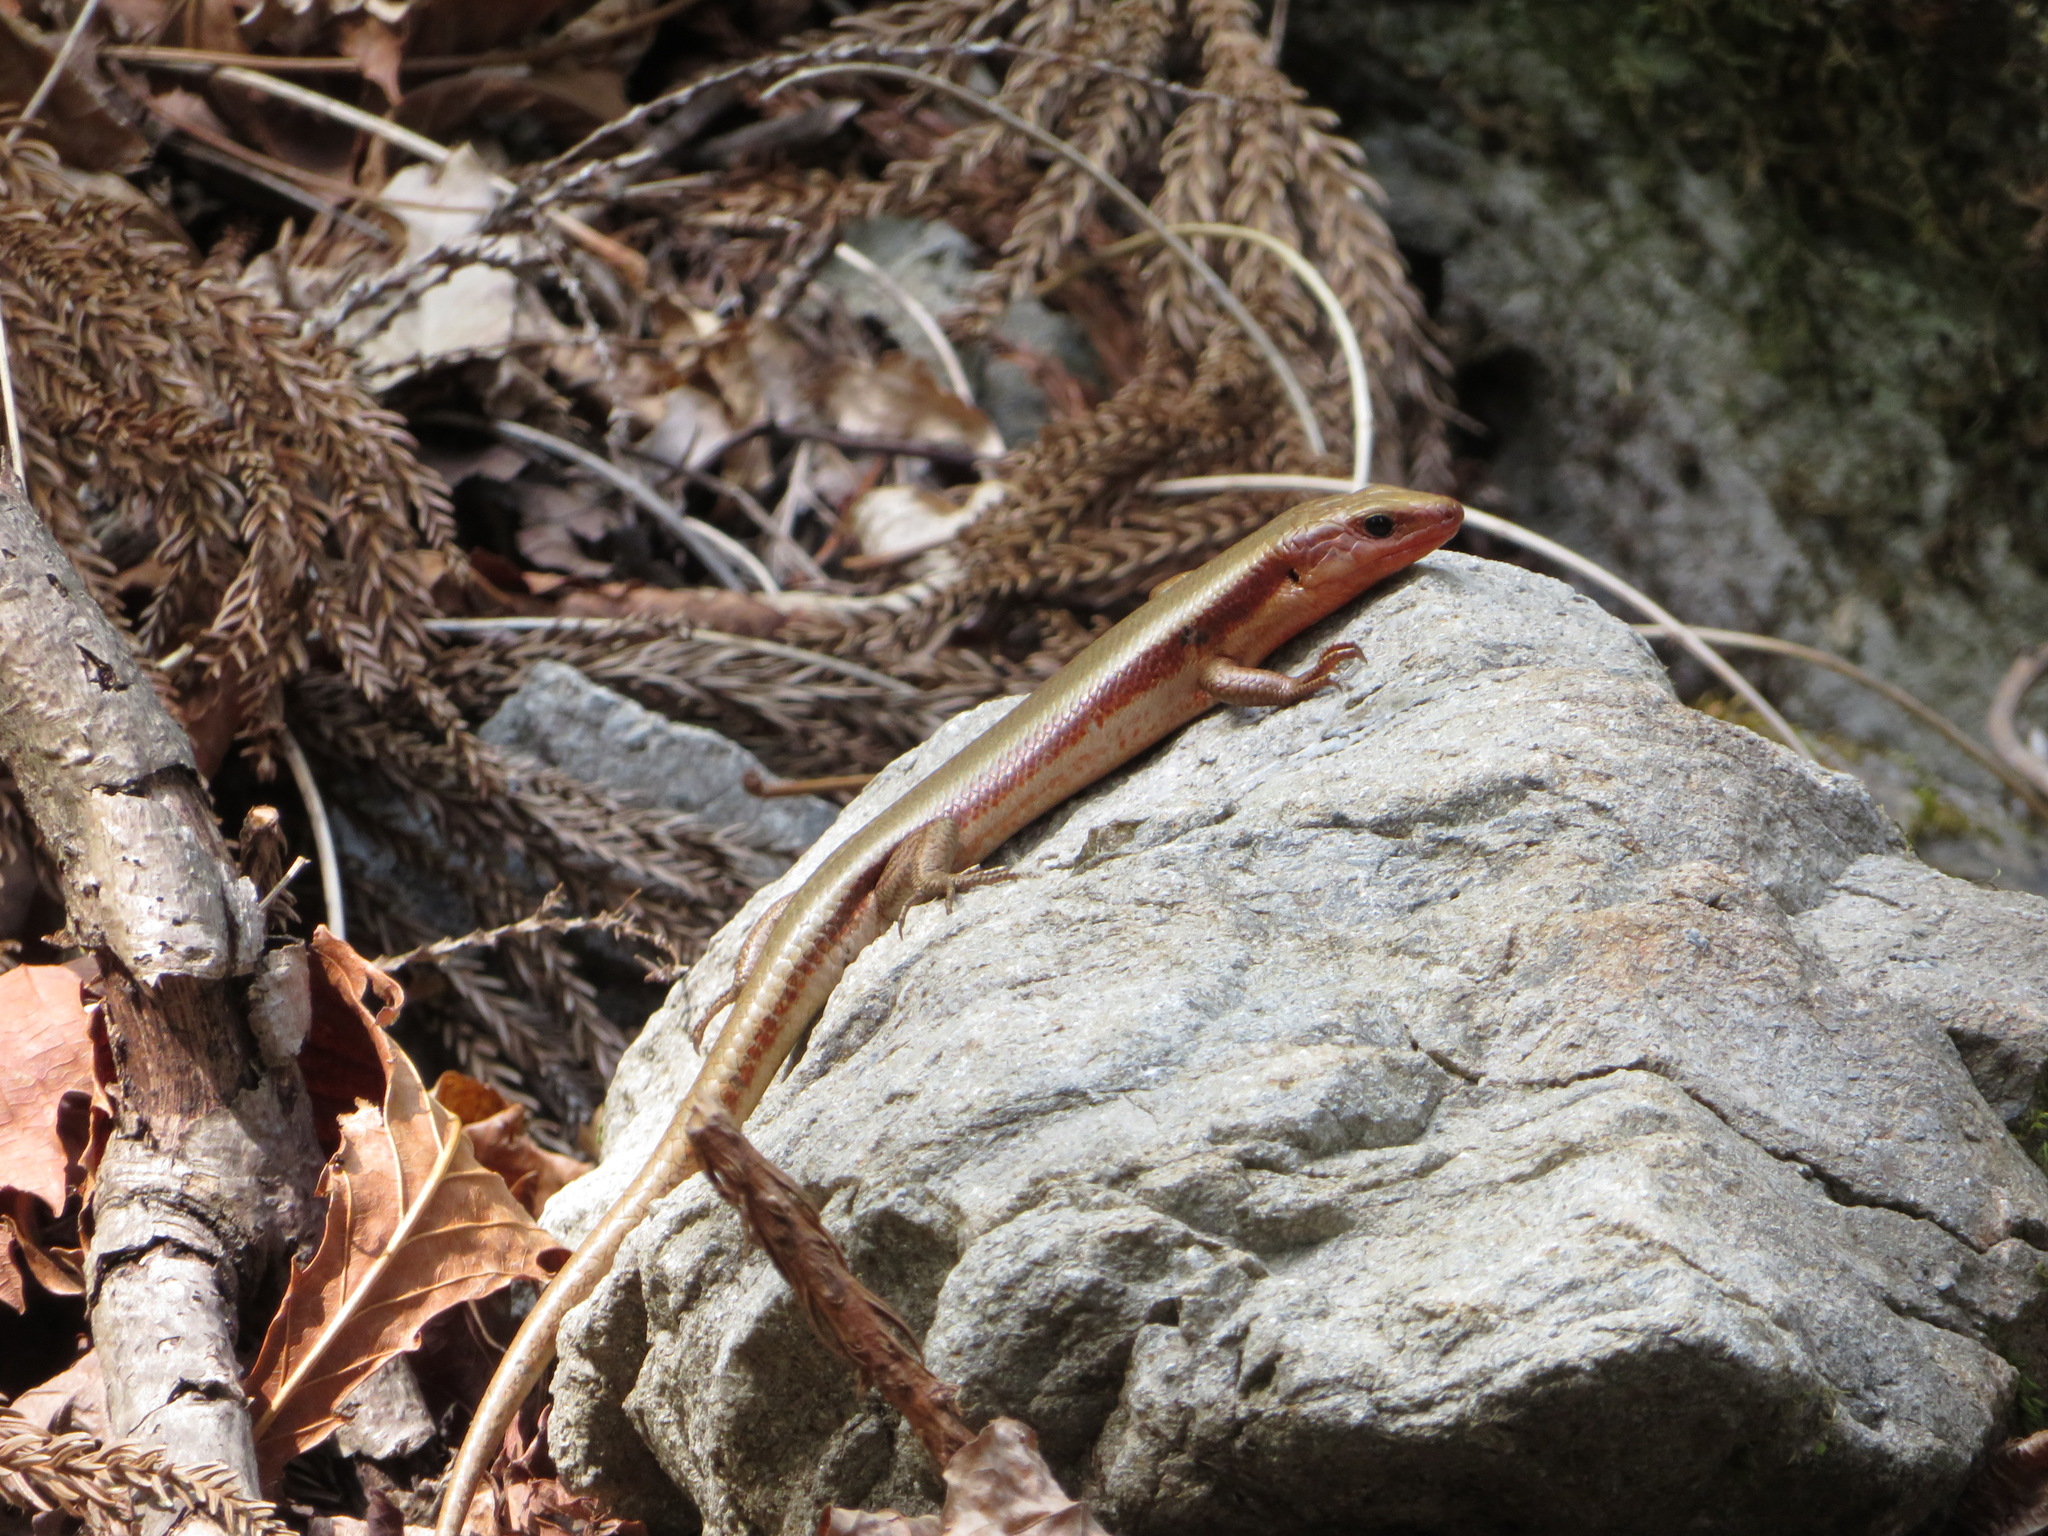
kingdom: Animalia
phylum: Chordata
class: Squamata
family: Scincidae
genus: Plestiodon
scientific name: Plestiodon finitimus
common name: Far eastern skink
